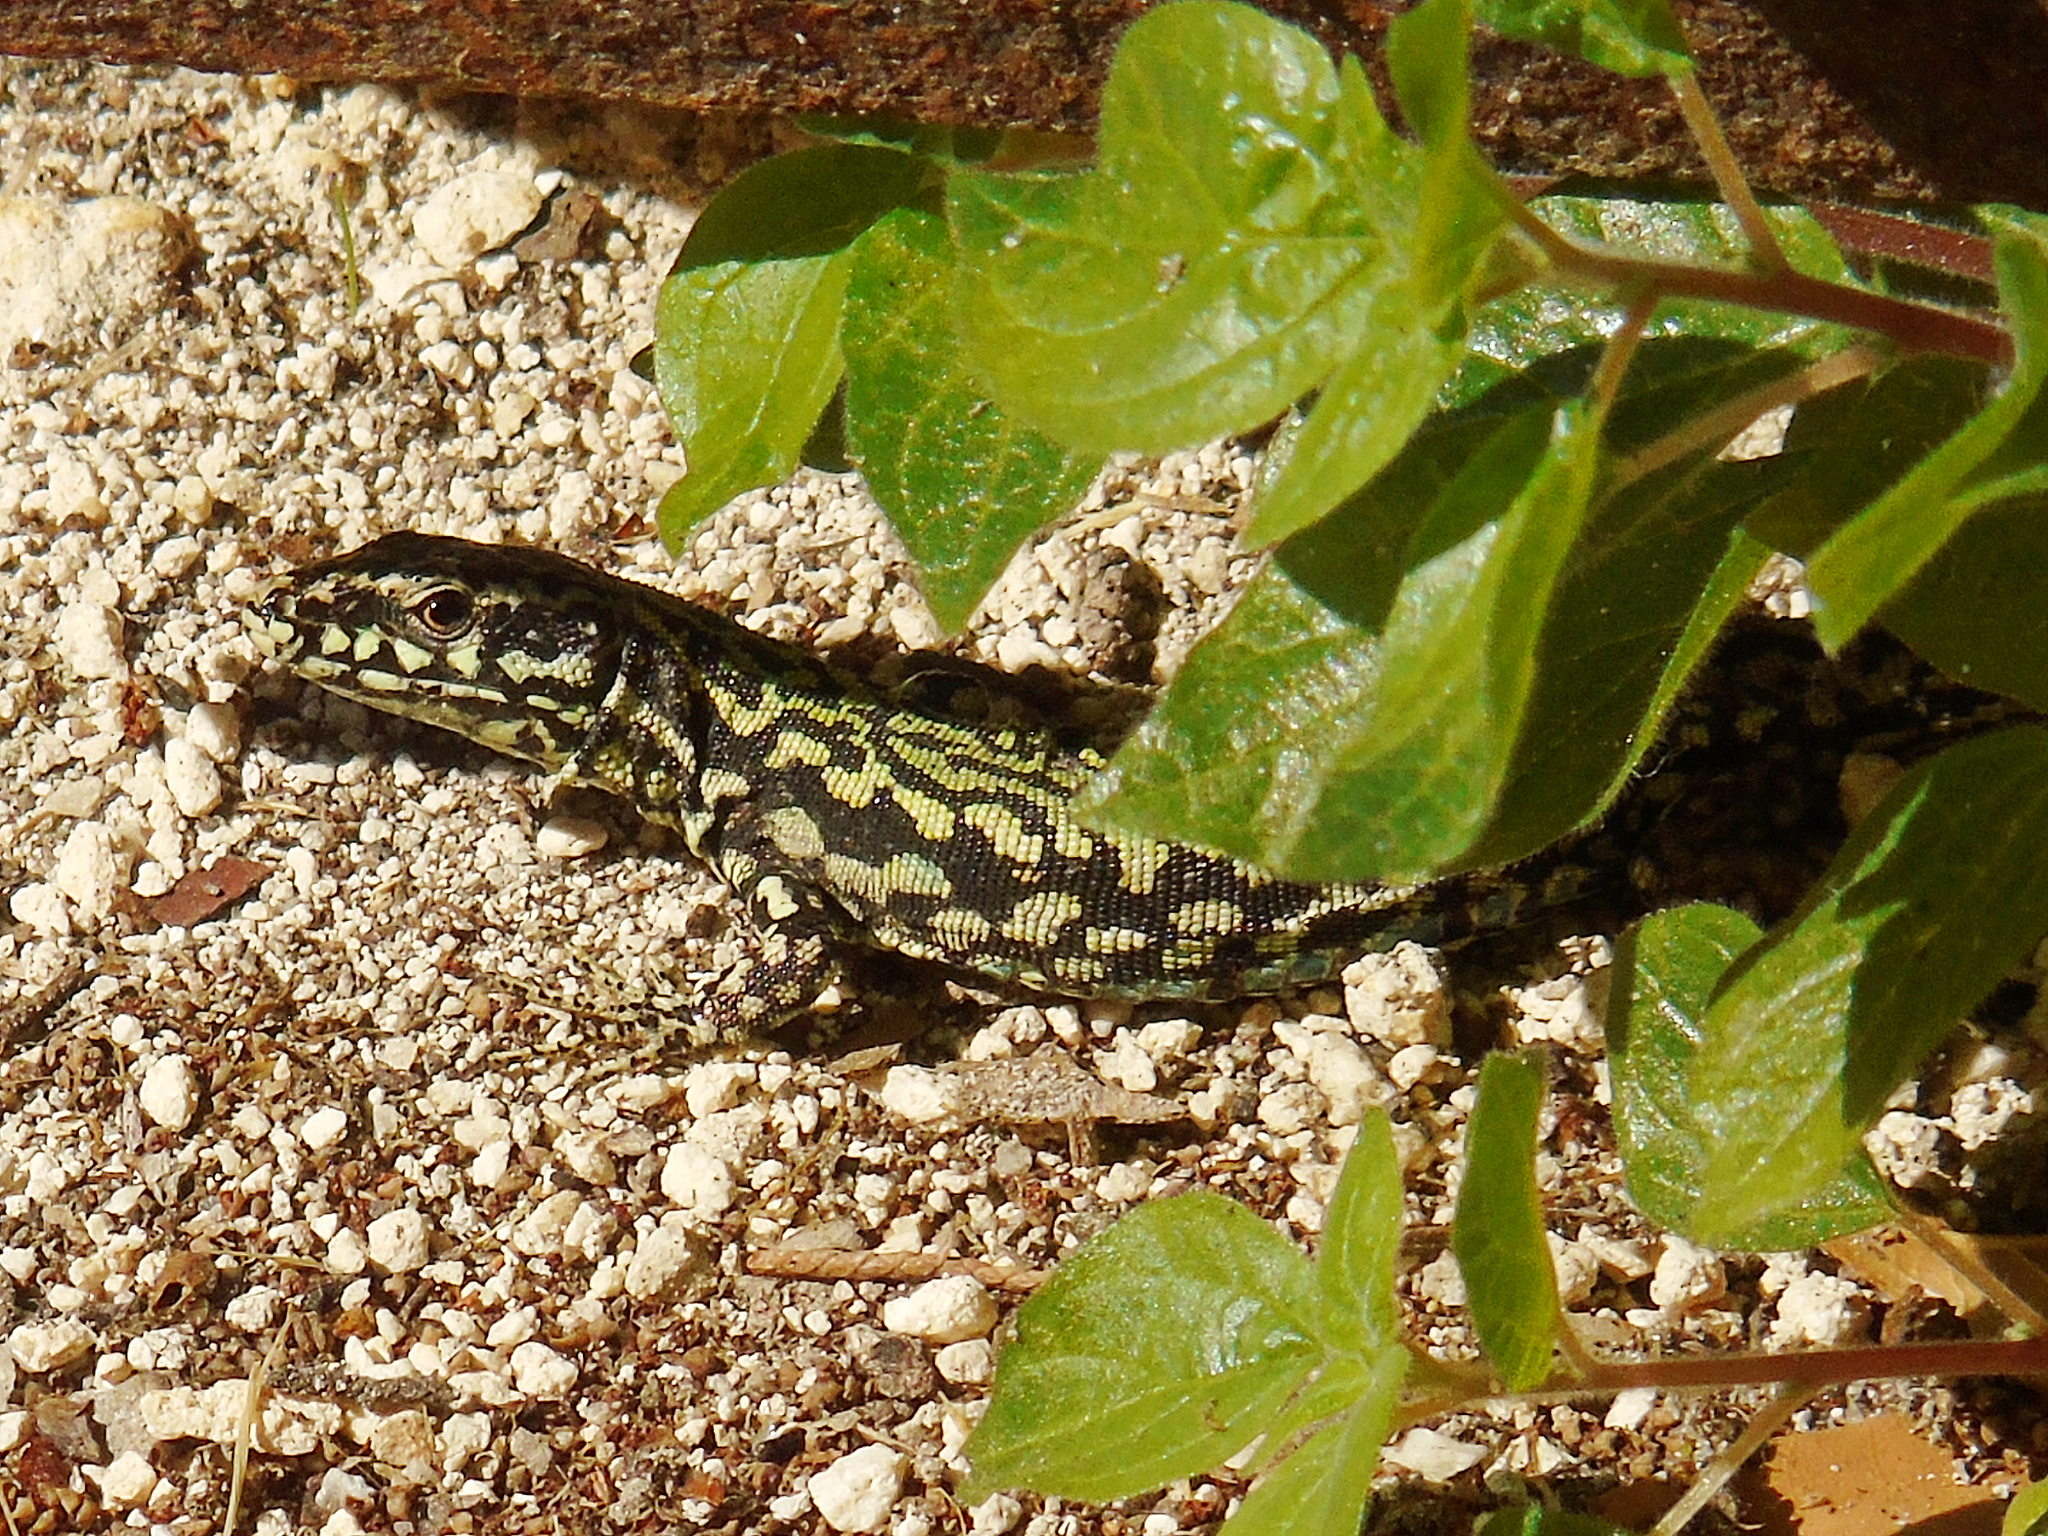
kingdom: Animalia
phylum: Chordata
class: Squamata
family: Lacertidae
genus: Podarcis
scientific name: Podarcis muralis
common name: Common wall lizard
